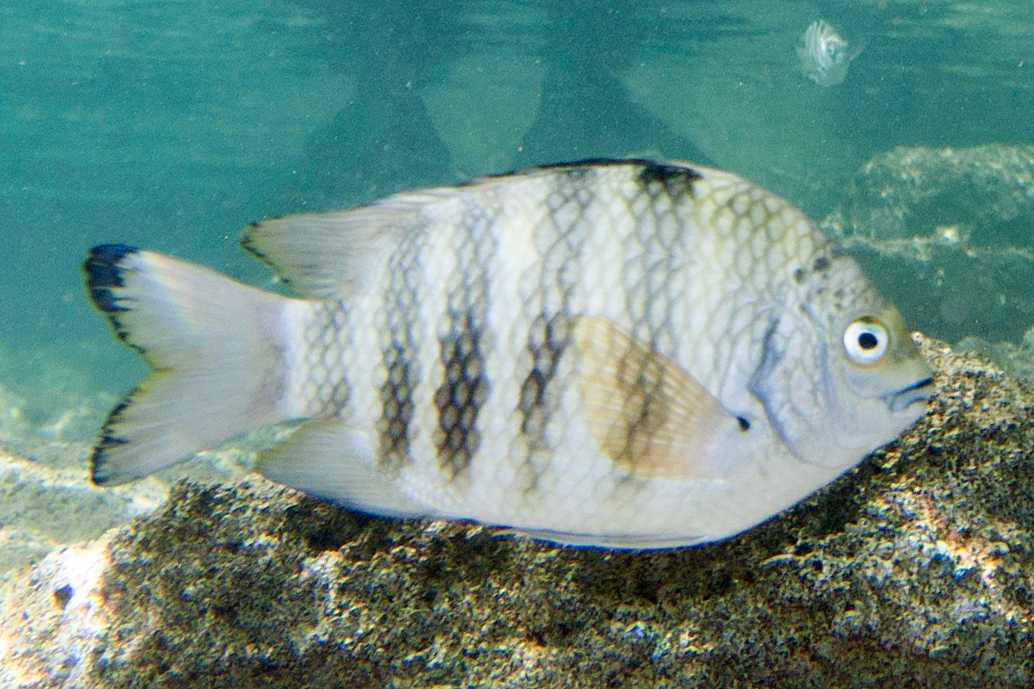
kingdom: Animalia
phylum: Chordata
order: Perciformes
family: Pomacentridae
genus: Abudefduf
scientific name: Abudefduf septemfasciatus
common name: Banded sergeant
